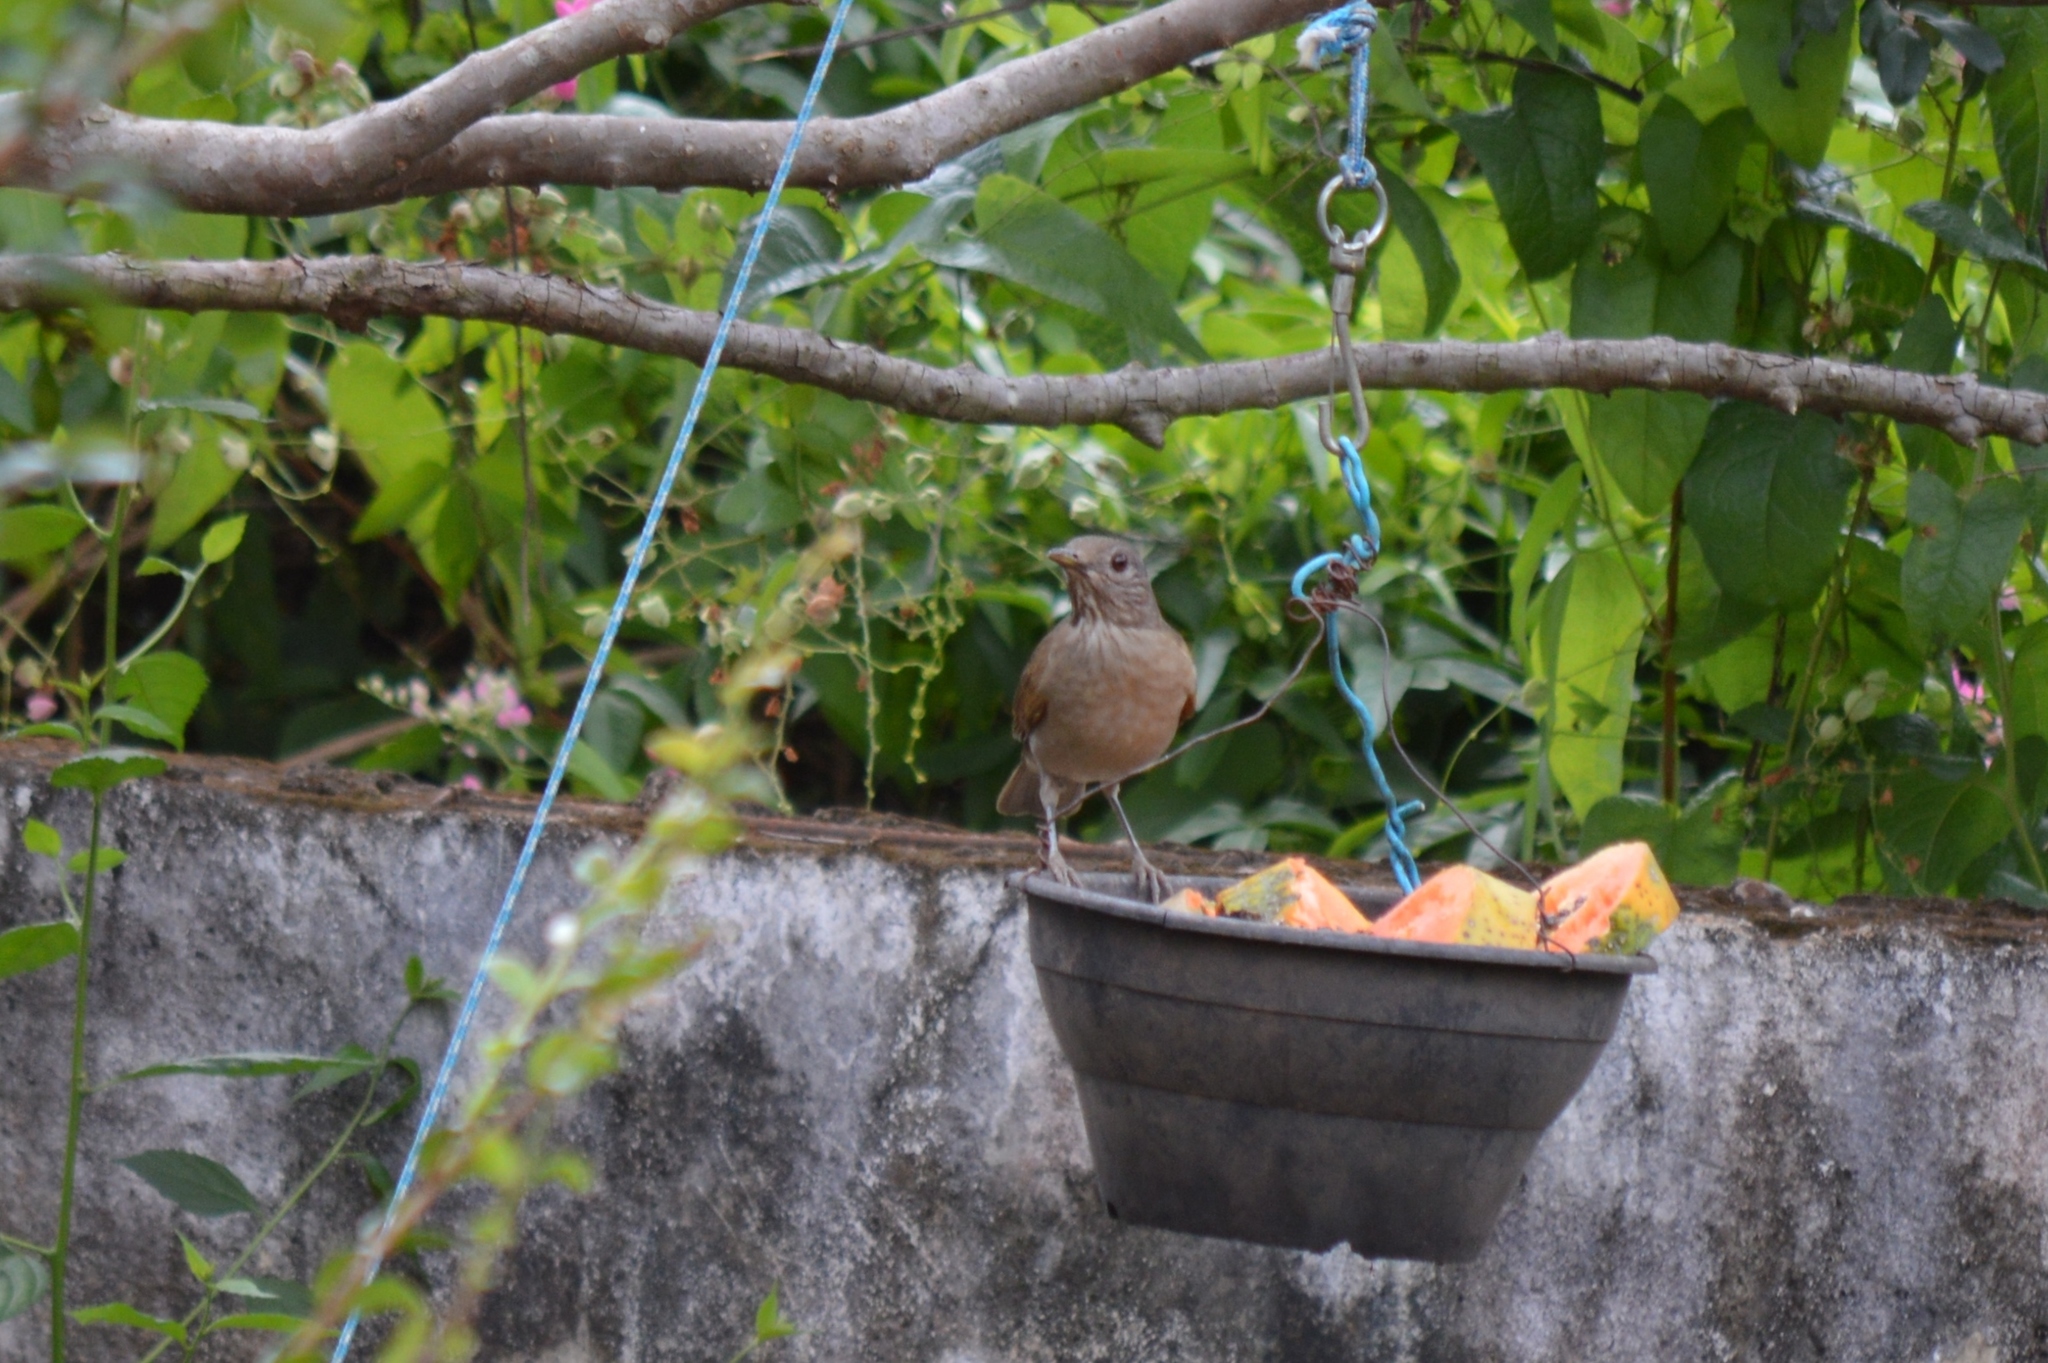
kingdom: Animalia
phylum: Chordata
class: Aves
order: Passeriformes
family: Turdidae
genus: Turdus
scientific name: Turdus leucomelas
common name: Pale-breasted thrush
